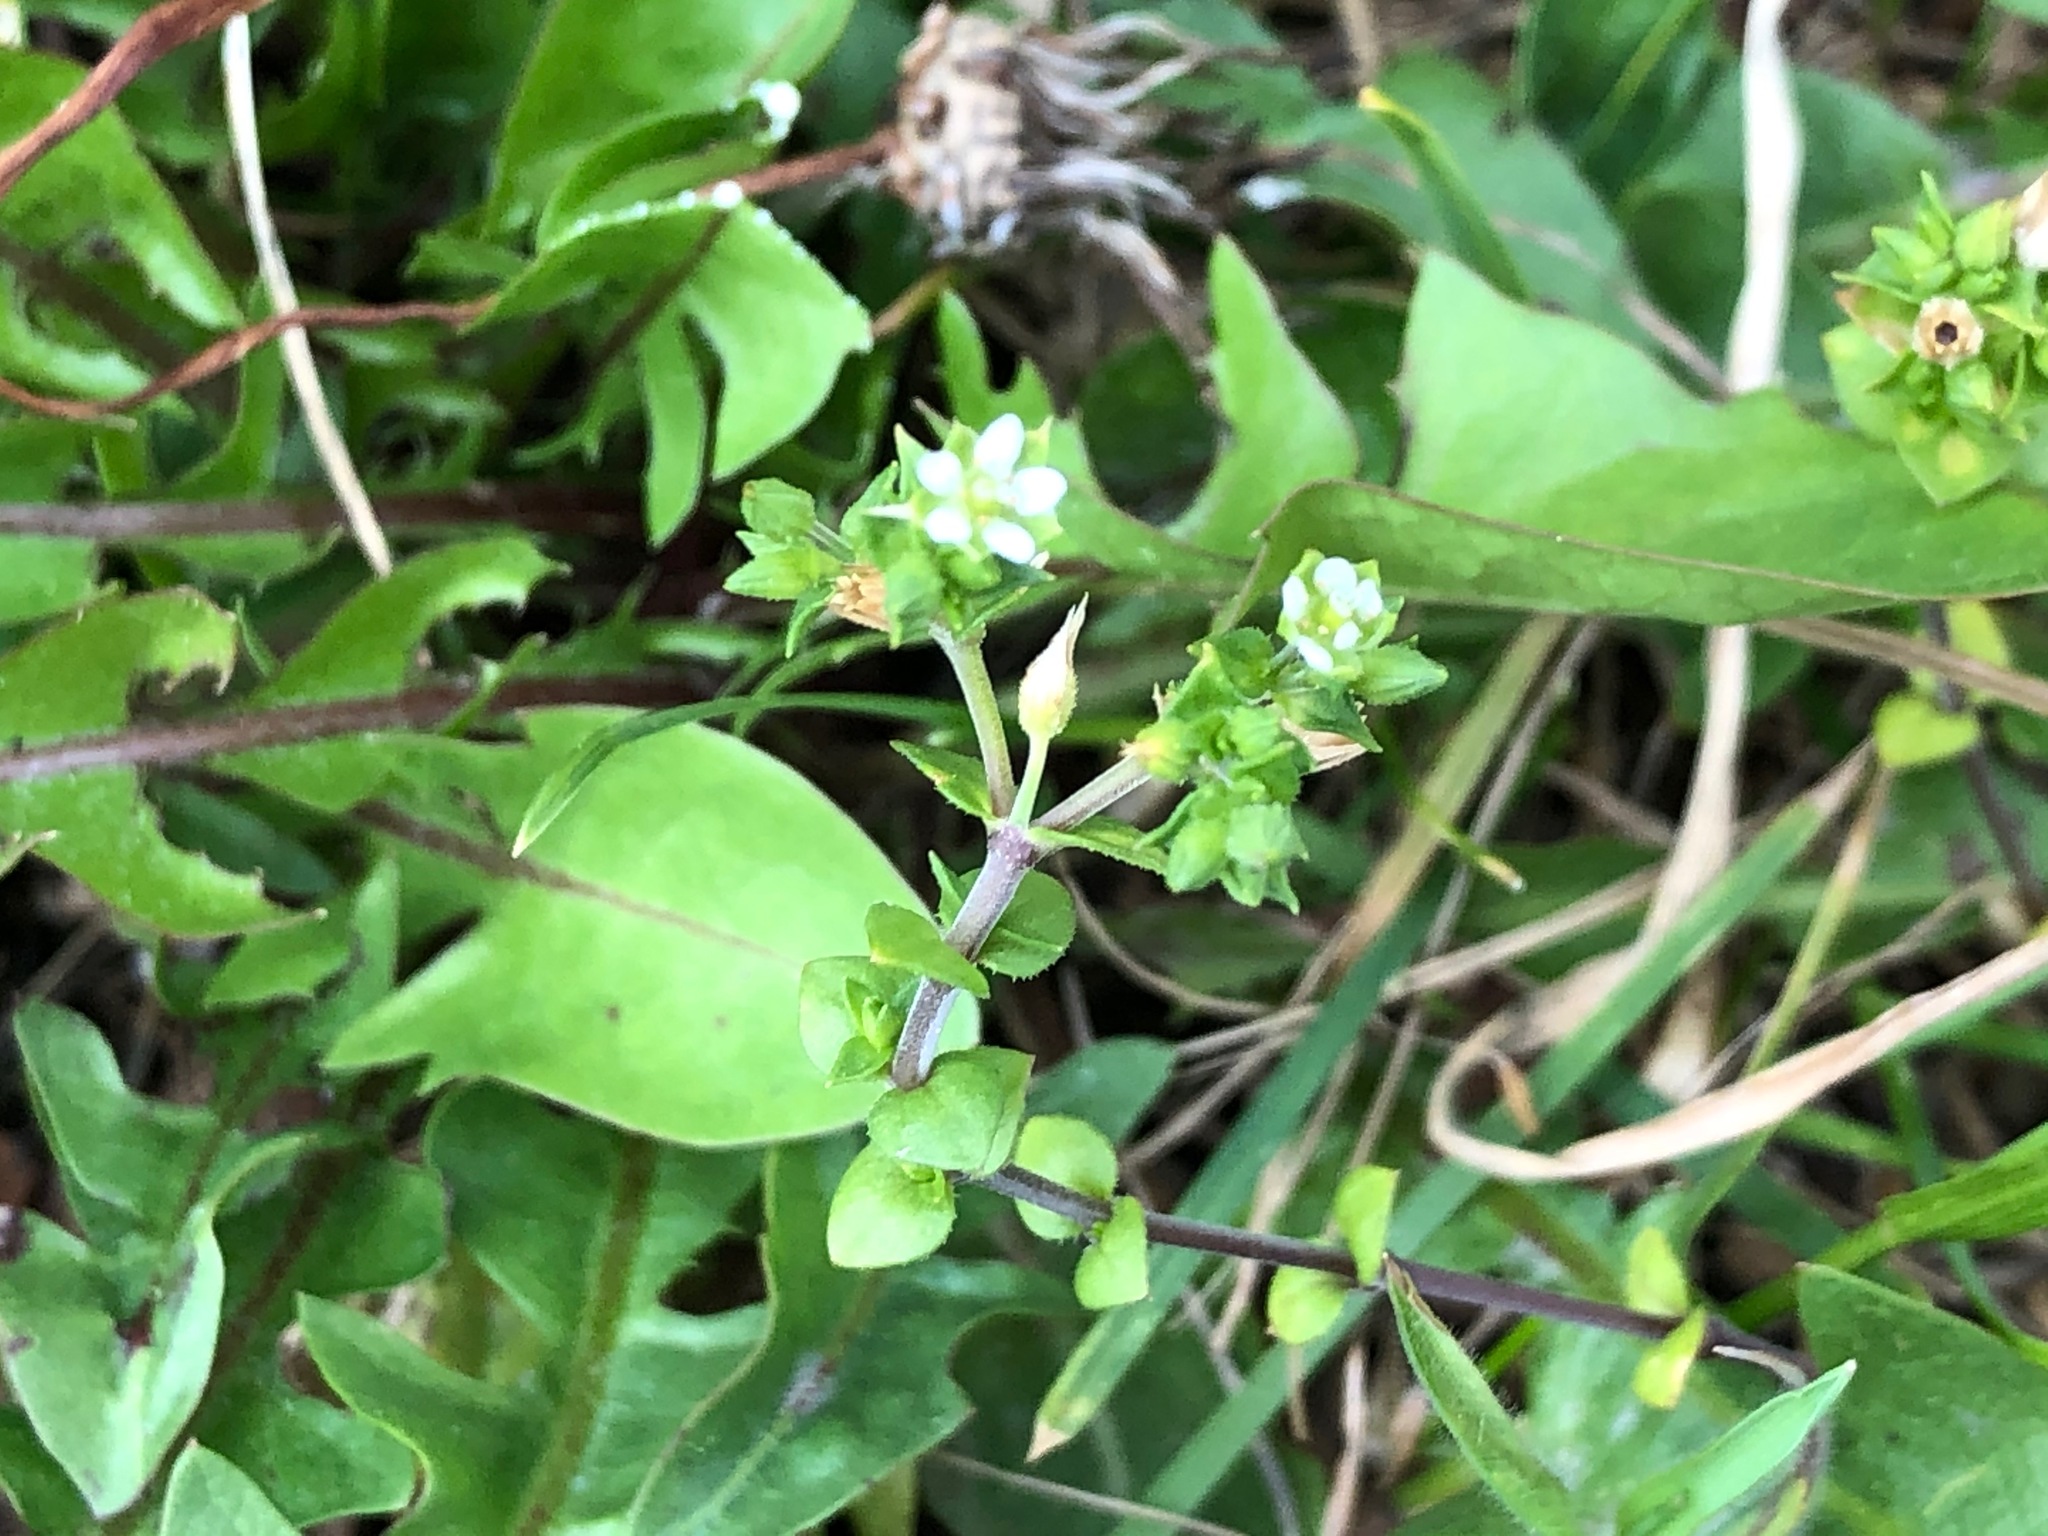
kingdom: Plantae
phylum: Tracheophyta
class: Magnoliopsida
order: Caryophyllales
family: Caryophyllaceae
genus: Arenaria
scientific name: Arenaria serpyllifolia
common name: Thyme-leaved sandwort
